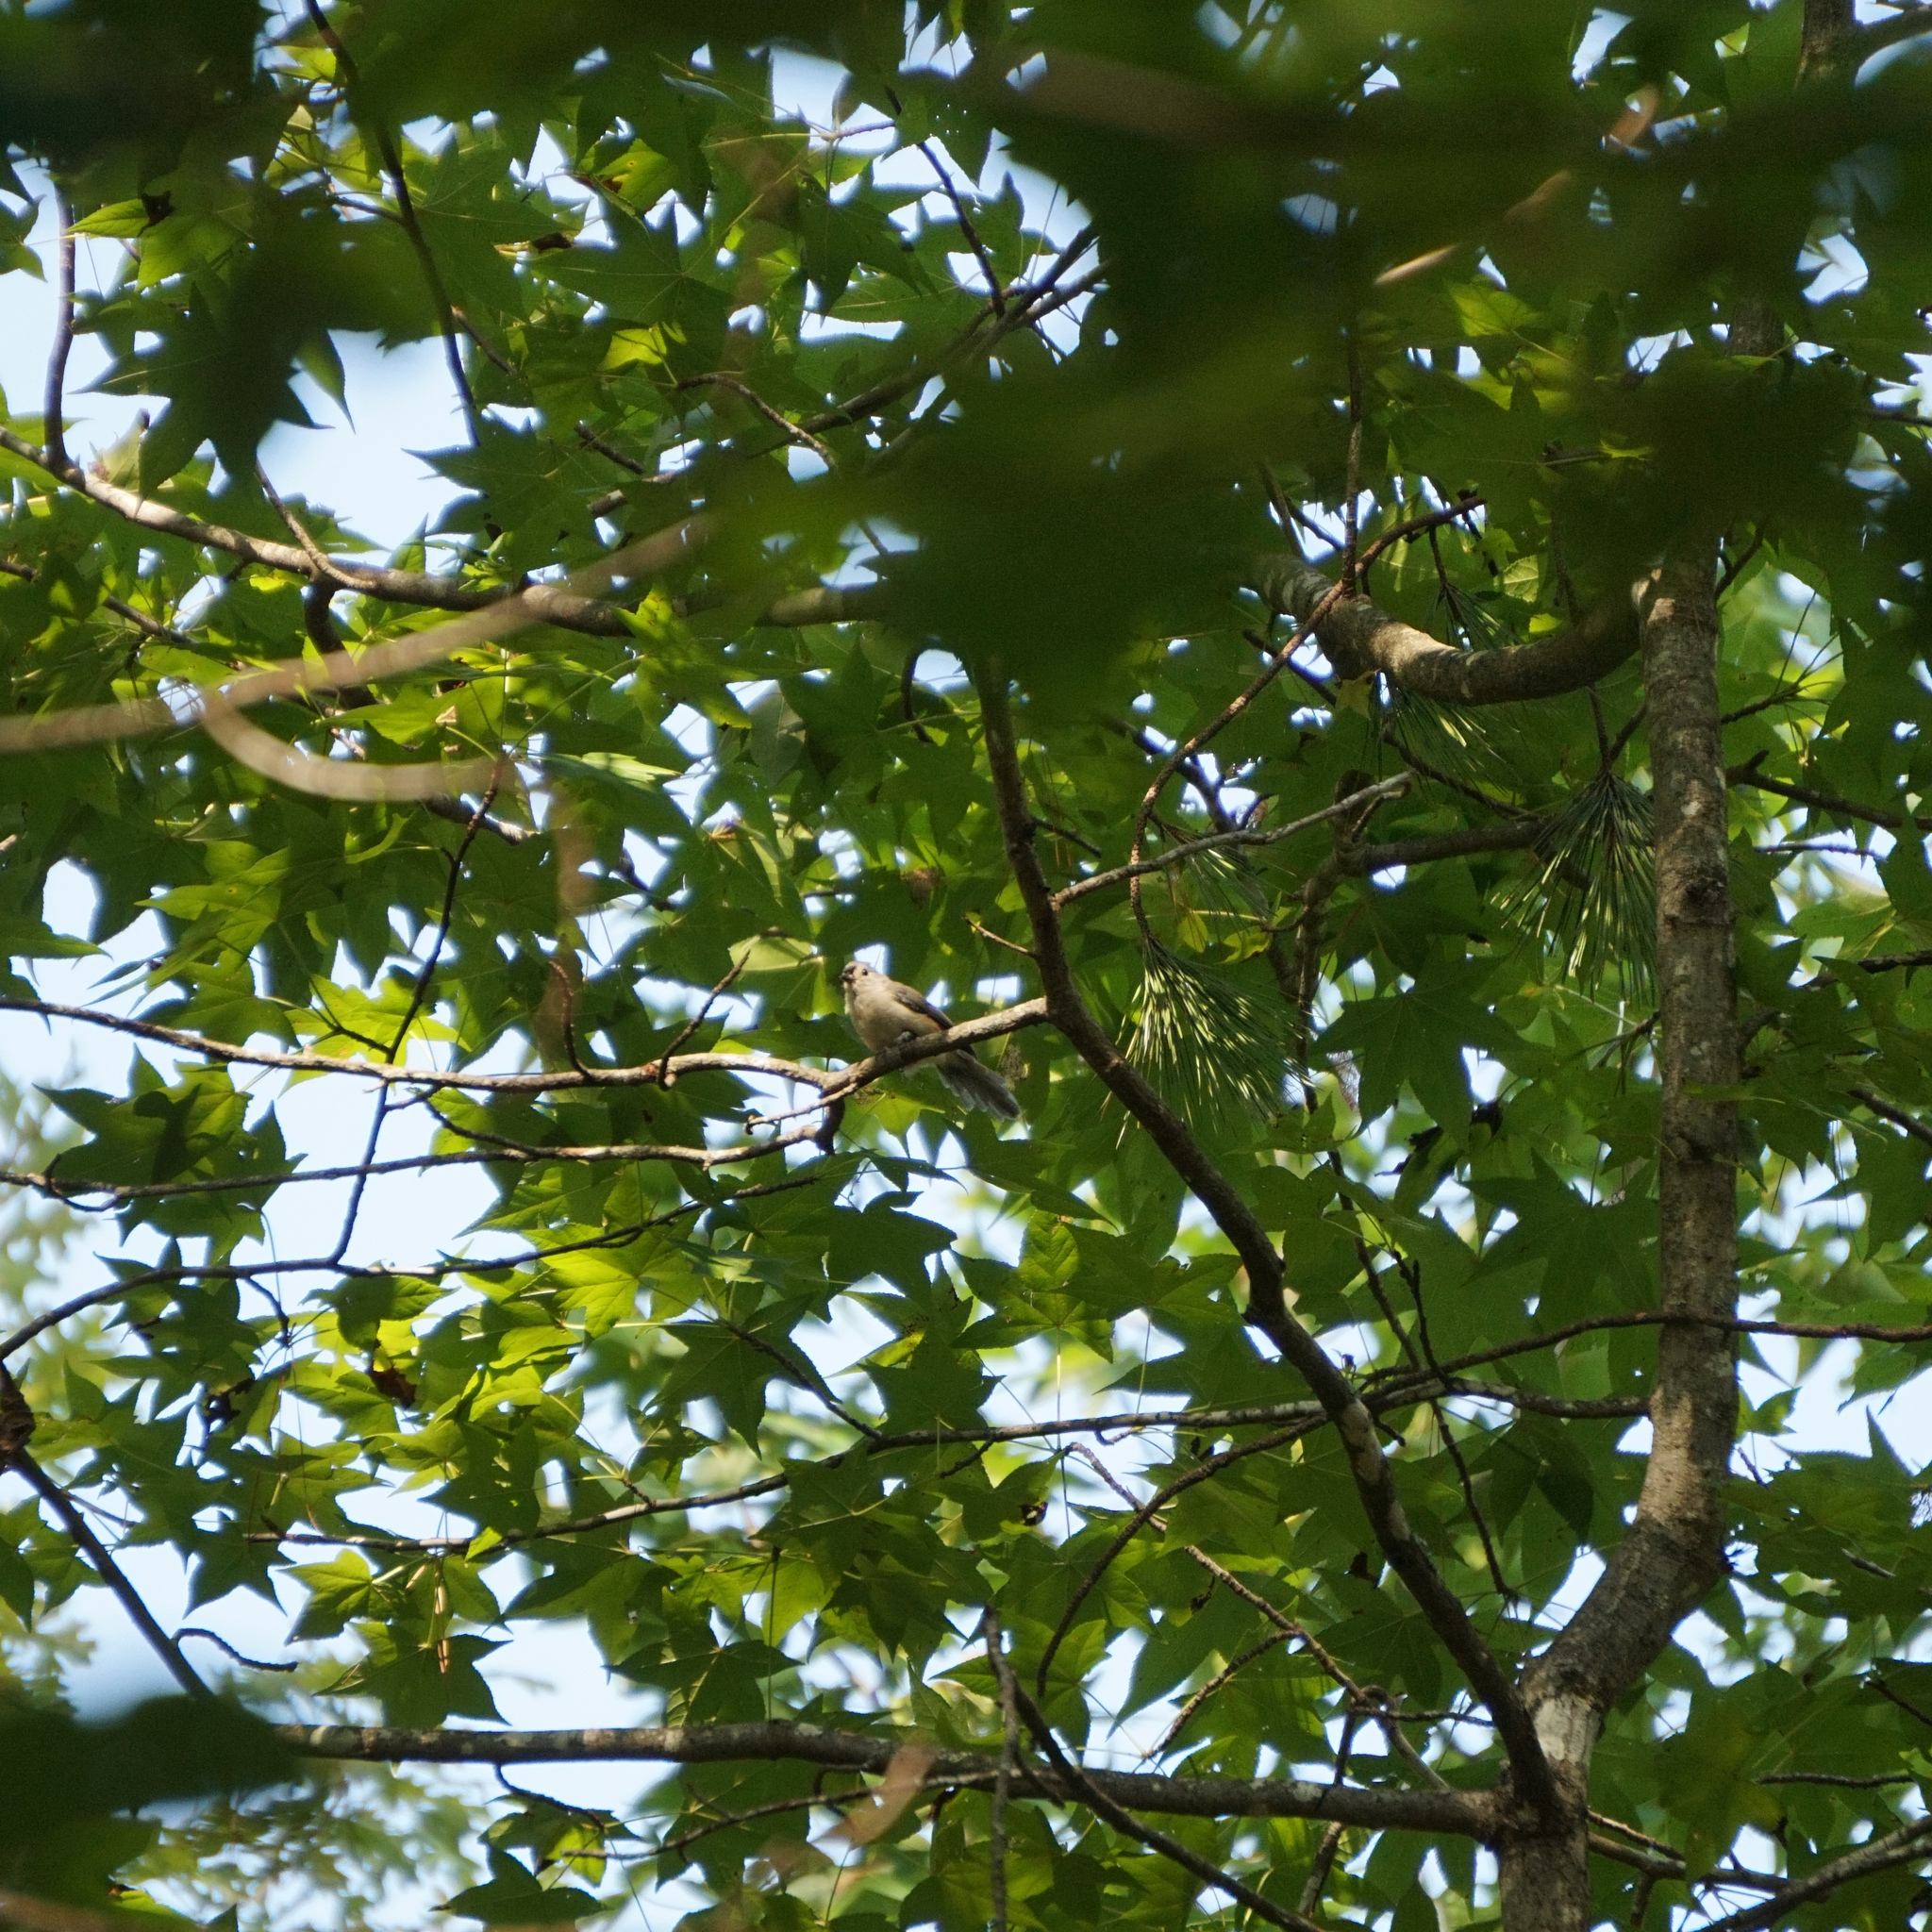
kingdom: Animalia
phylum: Chordata
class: Aves
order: Passeriformes
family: Paridae
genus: Baeolophus
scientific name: Baeolophus bicolor
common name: Tufted titmouse
